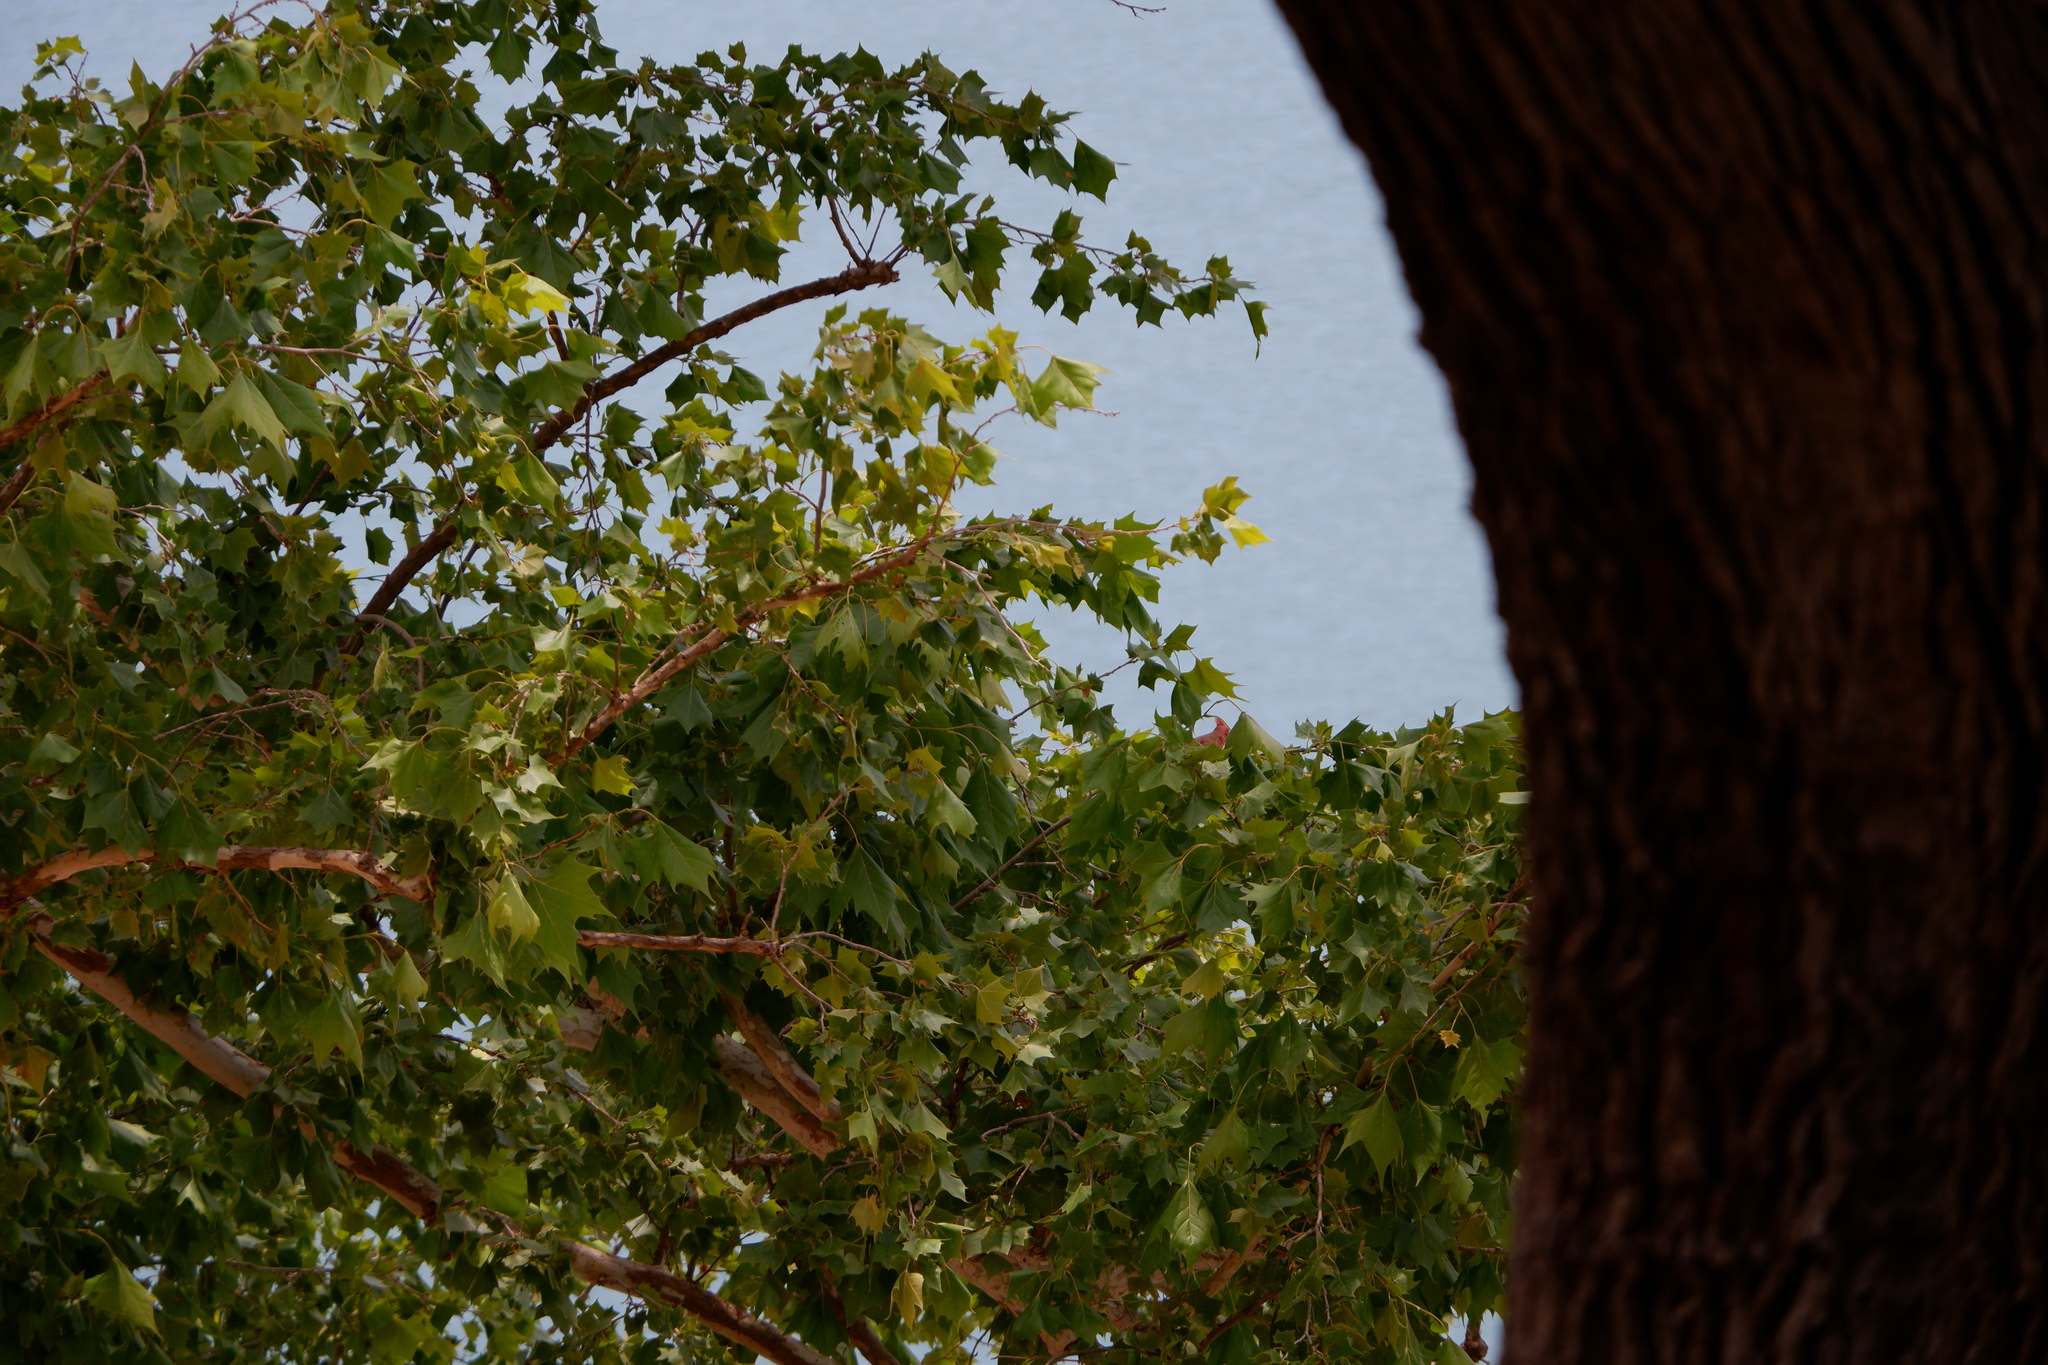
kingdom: Animalia
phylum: Chordata
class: Aves
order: Passeriformes
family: Cardinalidae
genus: Cardinalis
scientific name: Cardinalis cardinalis
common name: Northern cardinal
